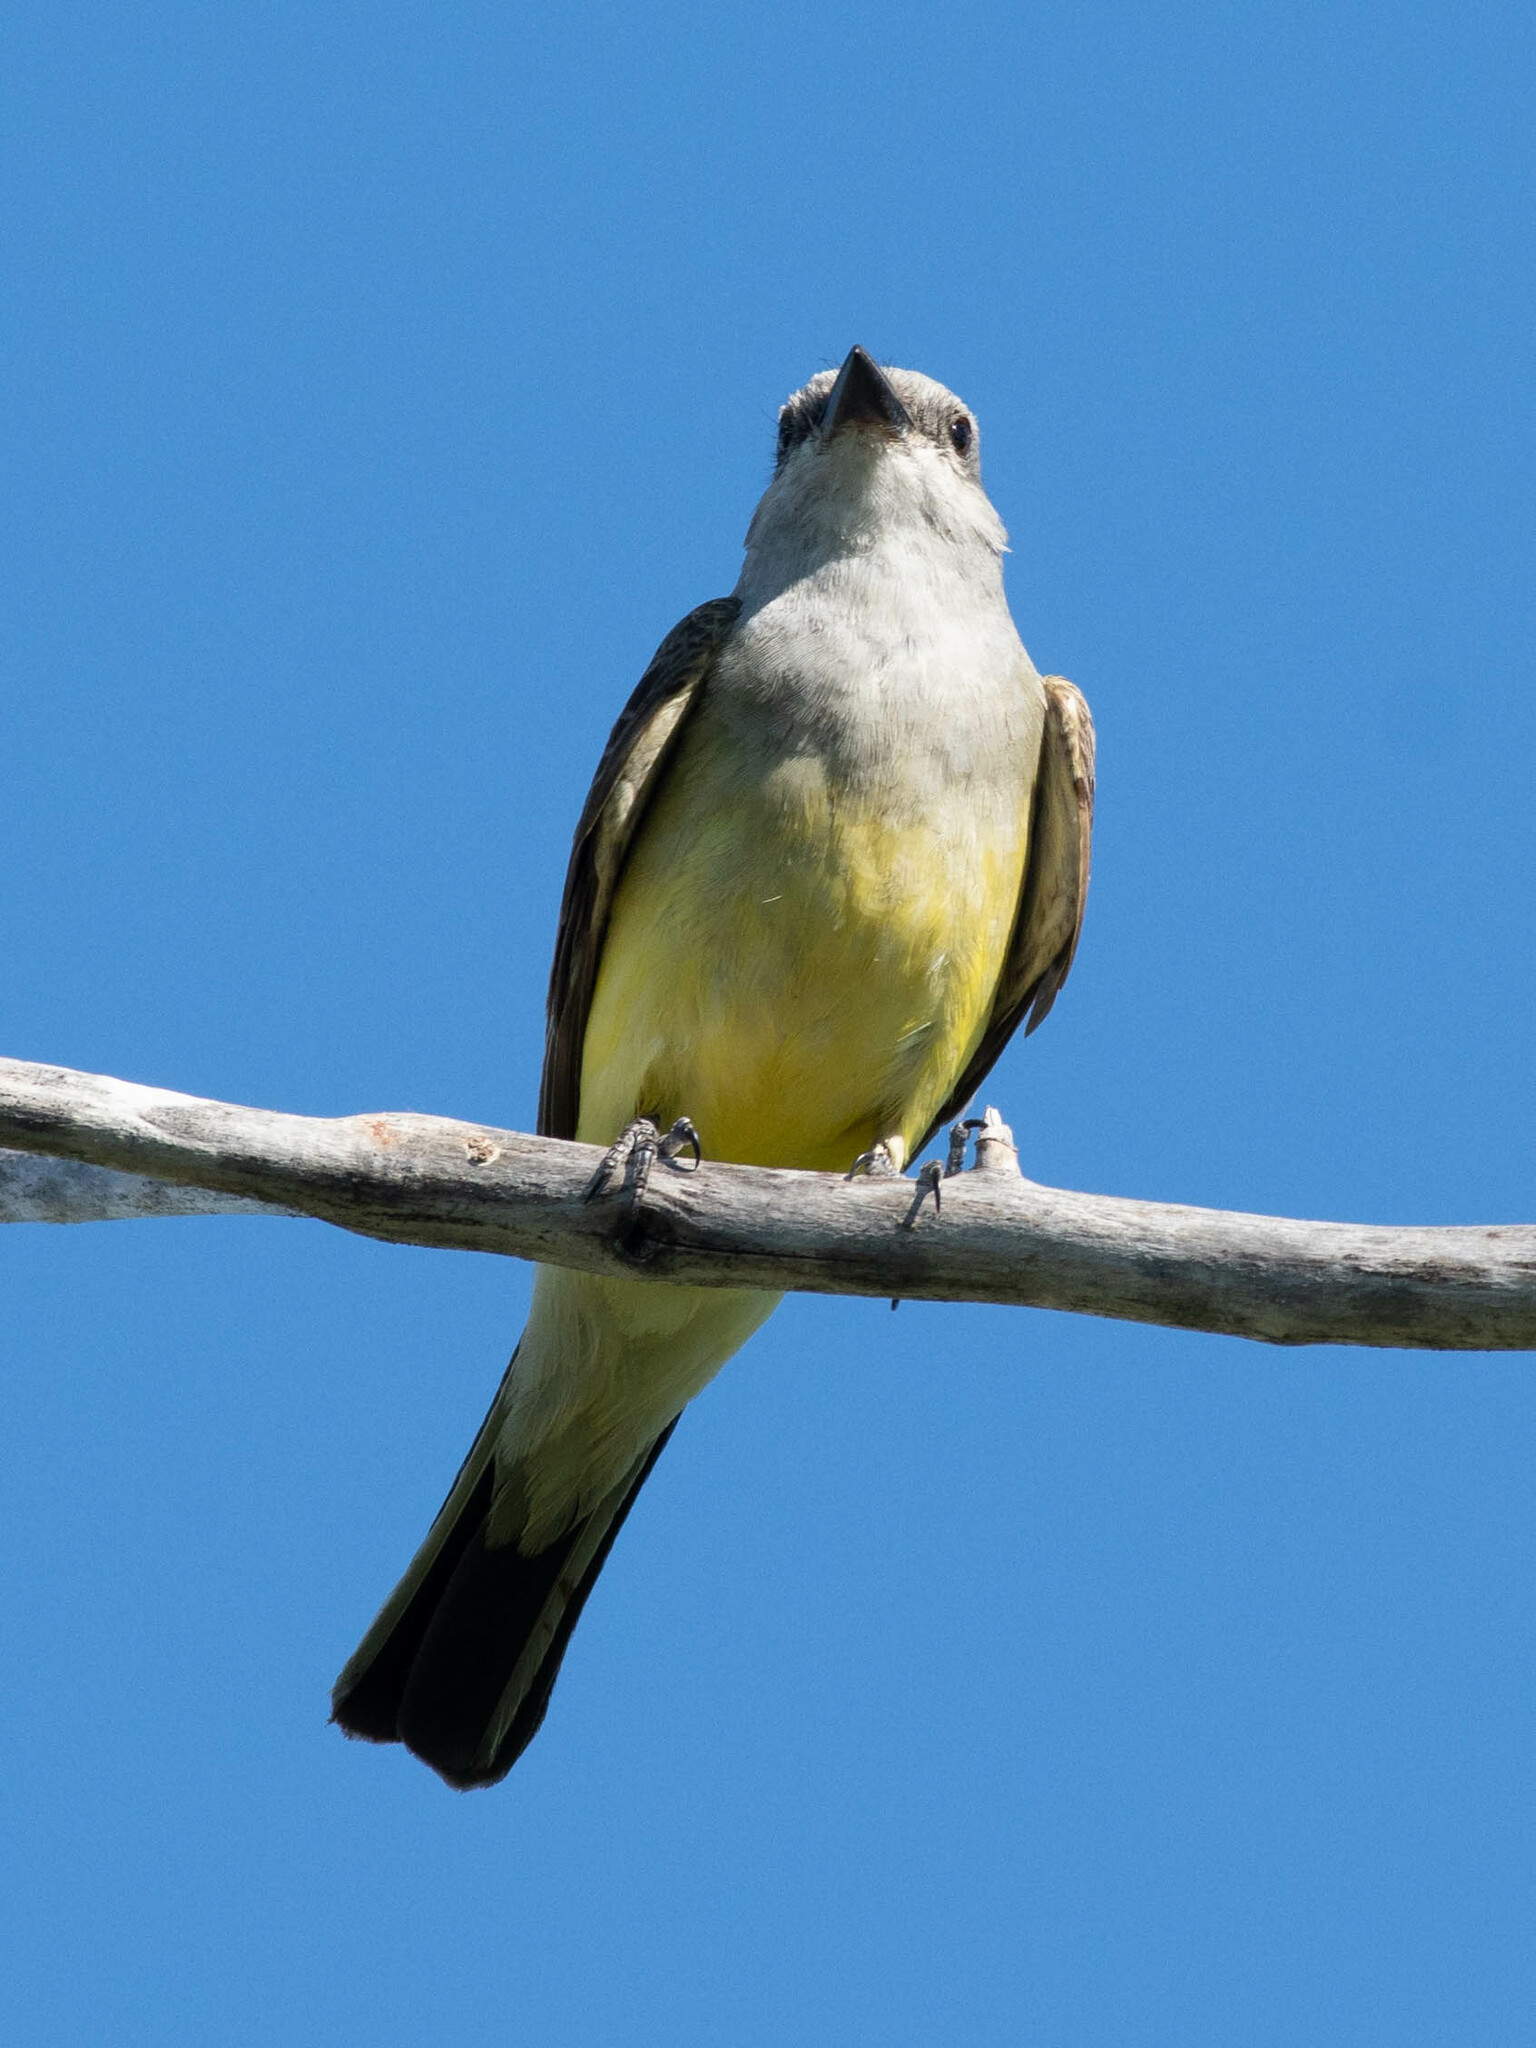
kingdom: Animalia
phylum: Chordata
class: Aves
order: Passeriformes
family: Tyrannidae
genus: Tyrannus
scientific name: Tyrannus verticalis
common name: Western kingbird
